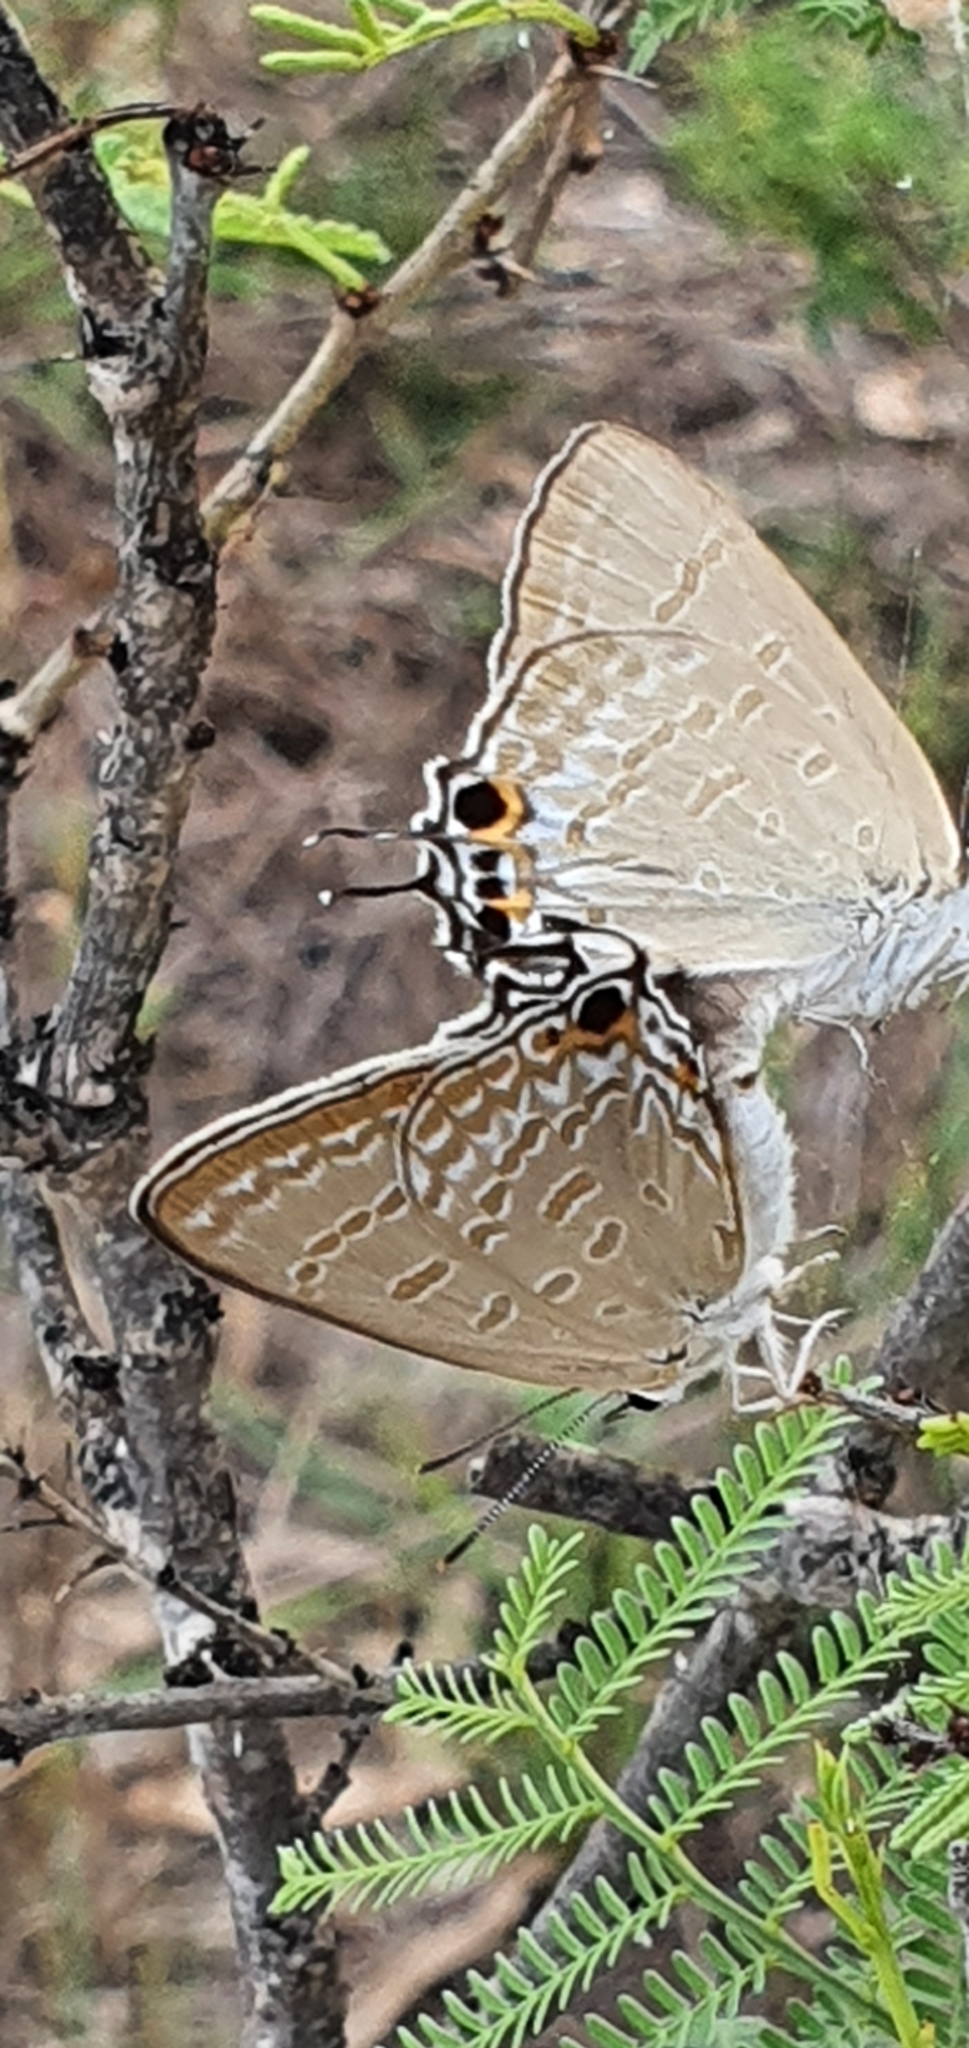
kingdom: Animalia
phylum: Arthropoda
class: Insecta
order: Lepidoptera
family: Lycaenidae
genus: Jalmenus
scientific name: Jalmenus daemeli
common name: Emerald hairstreak
